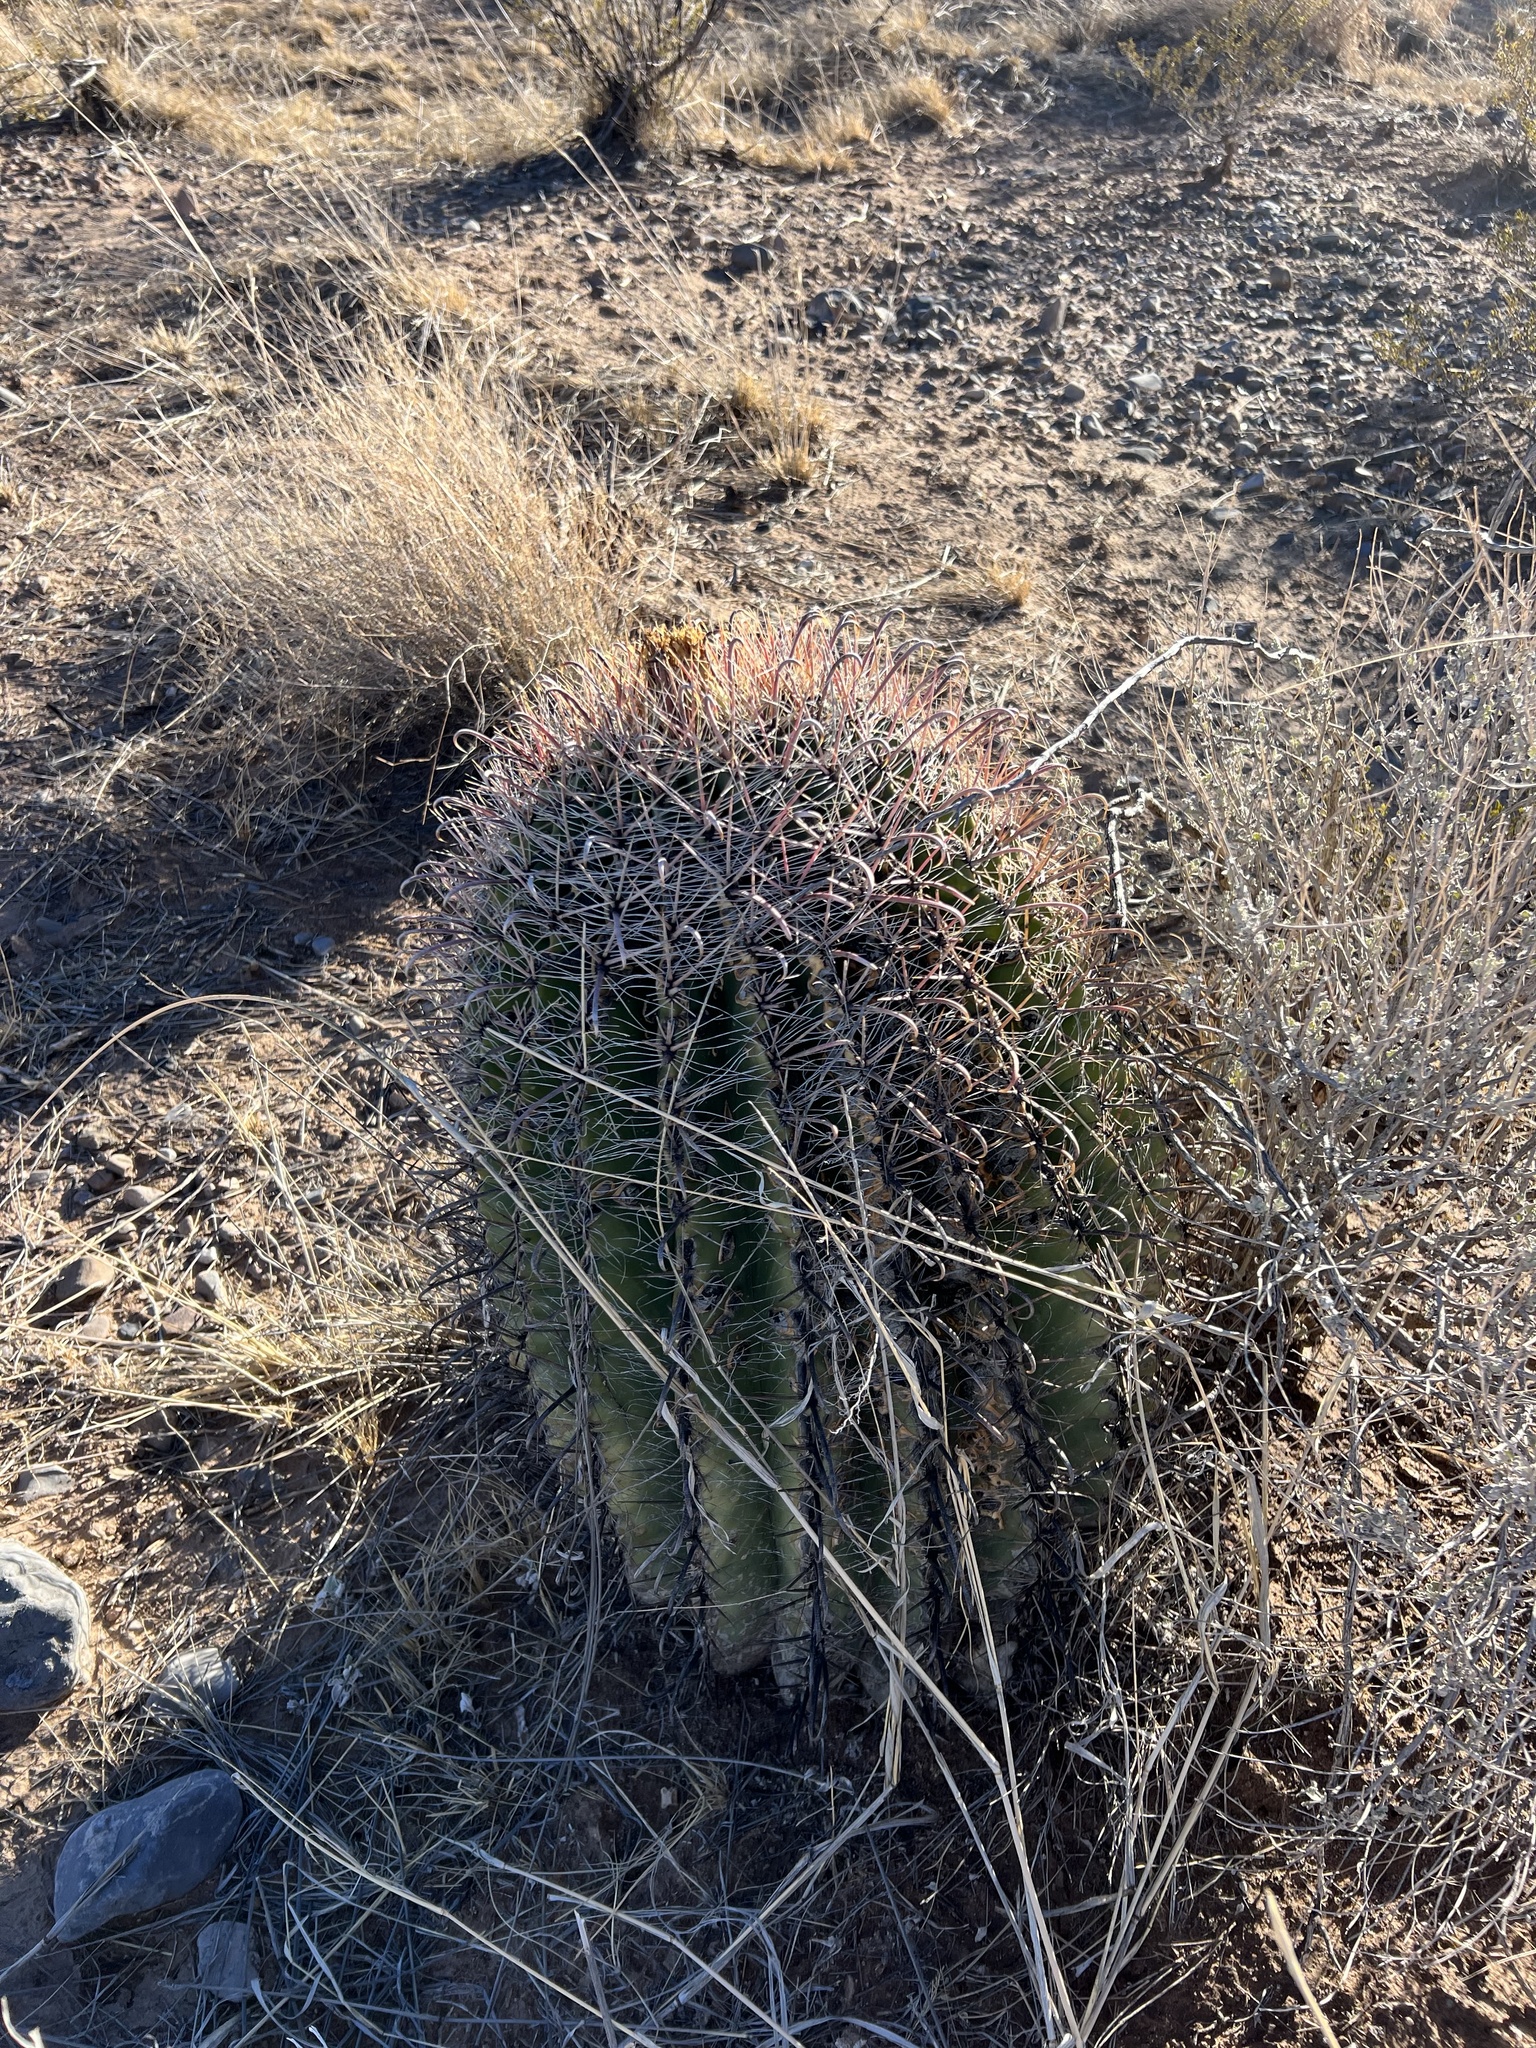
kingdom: Plantae
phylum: Tracheophyta
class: Magnoliopsida
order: Caryophyllales
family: Cactaceae
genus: Ferocactus
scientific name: Ferocactus wislizeni
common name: Candy barrel cactus
